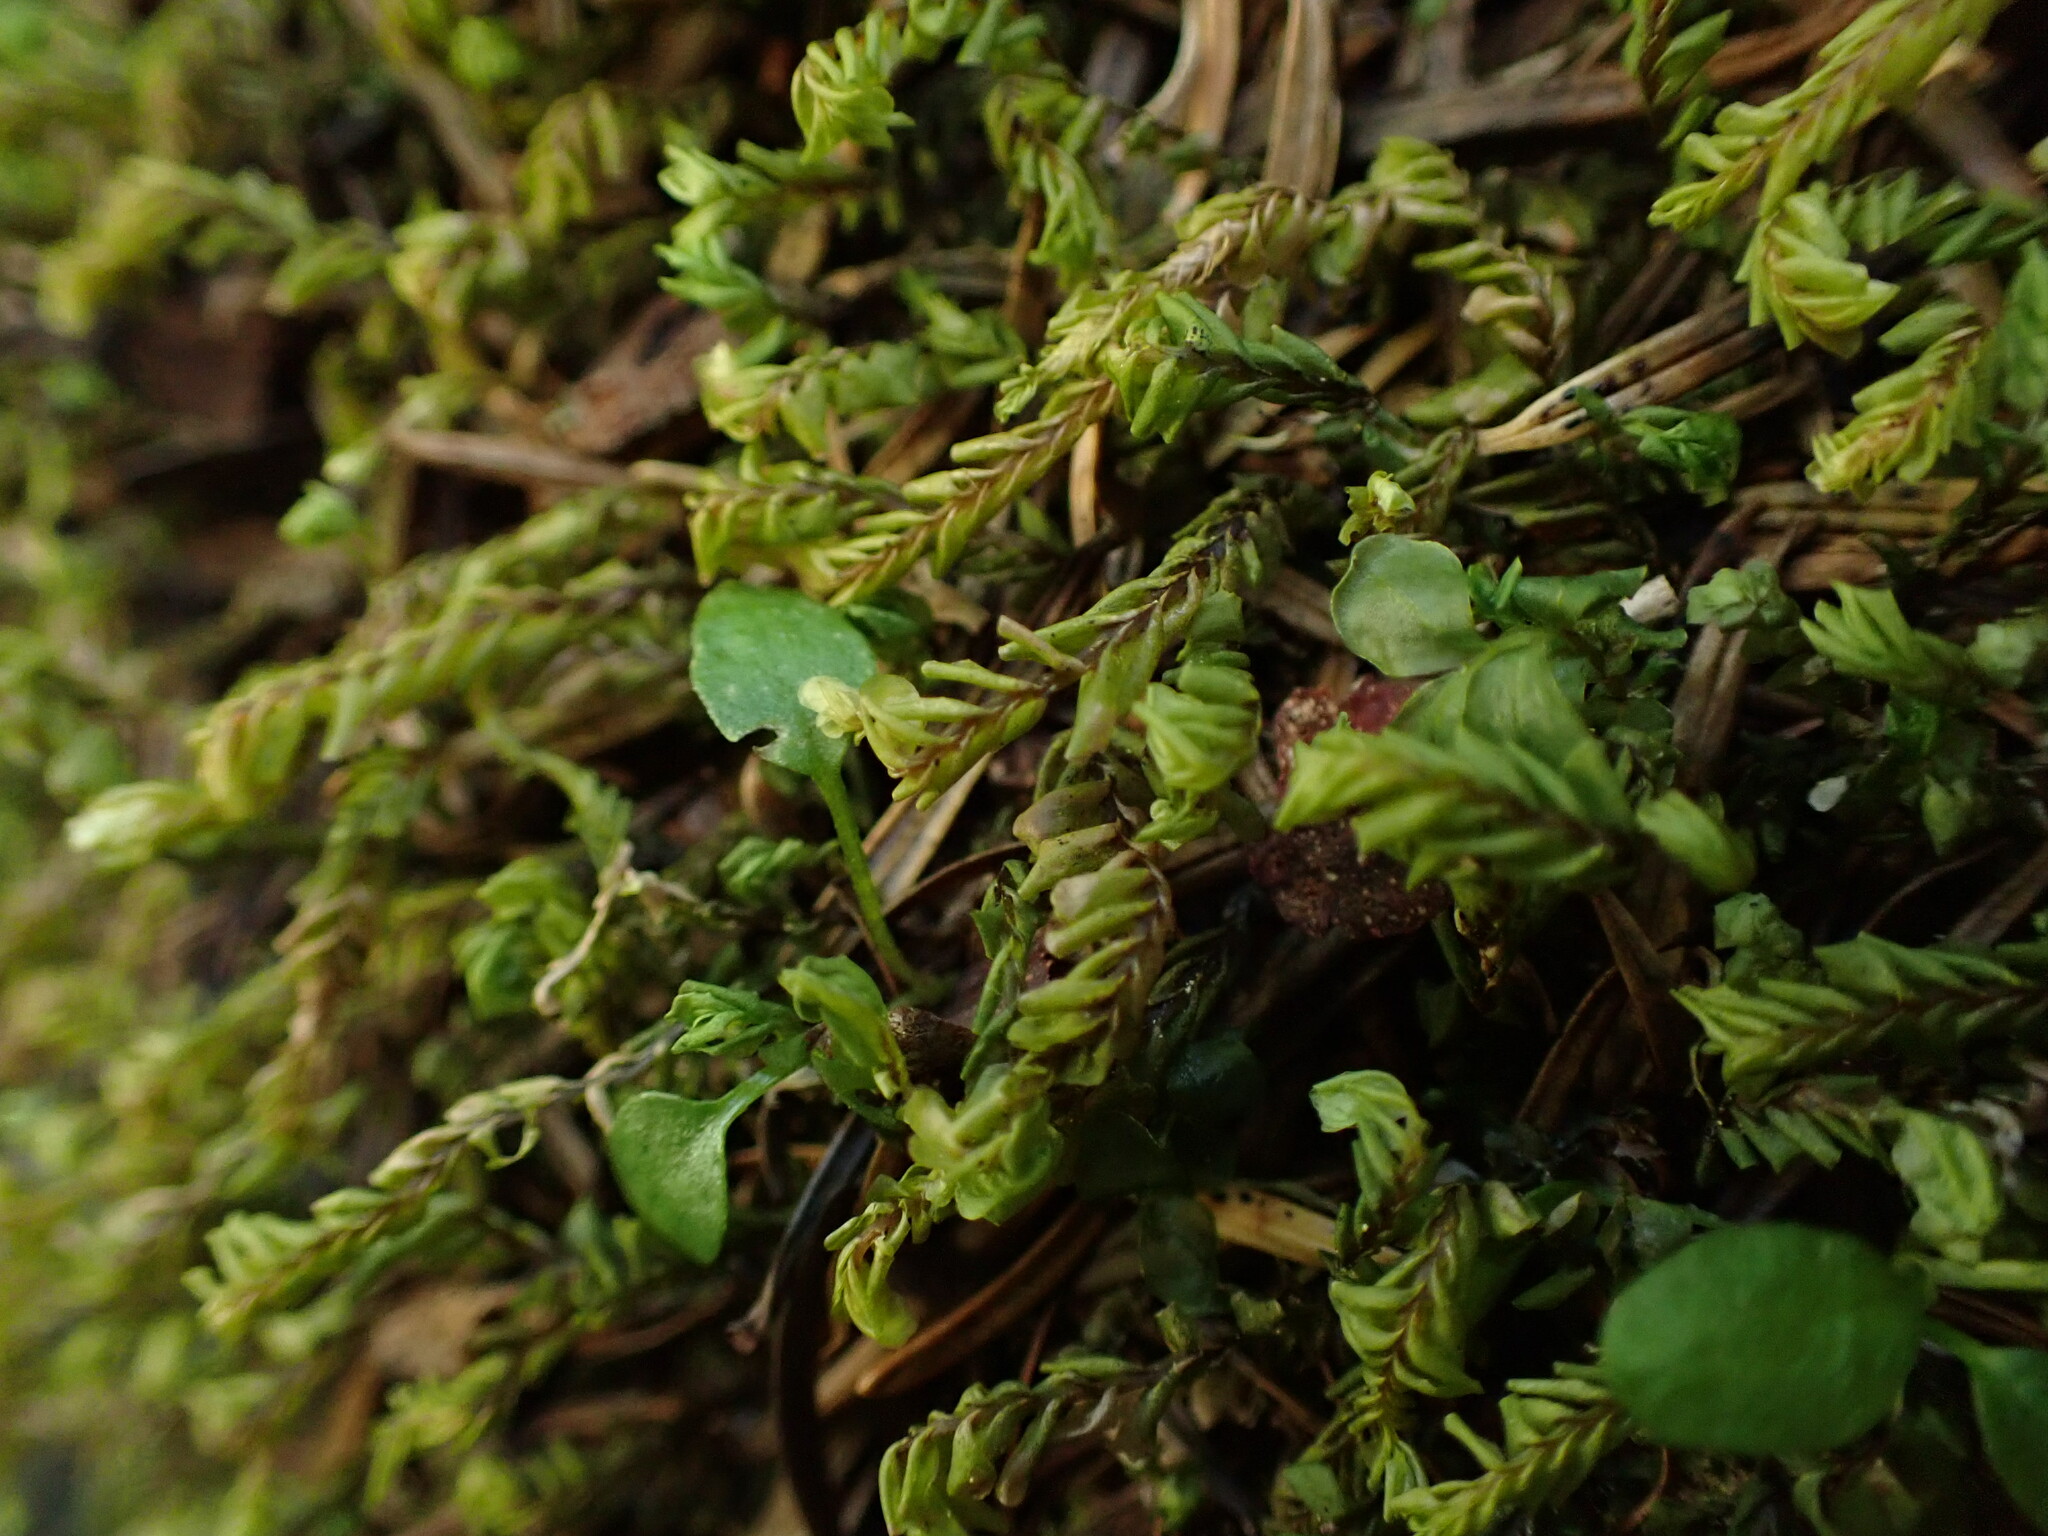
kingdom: Plantae
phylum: Marchantiophyta
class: Jungermanniopsida
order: Jungermanniales
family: Plagiochilaceae
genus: Plagiochila
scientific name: Plagiochila porelloides
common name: Lesser featherwort
